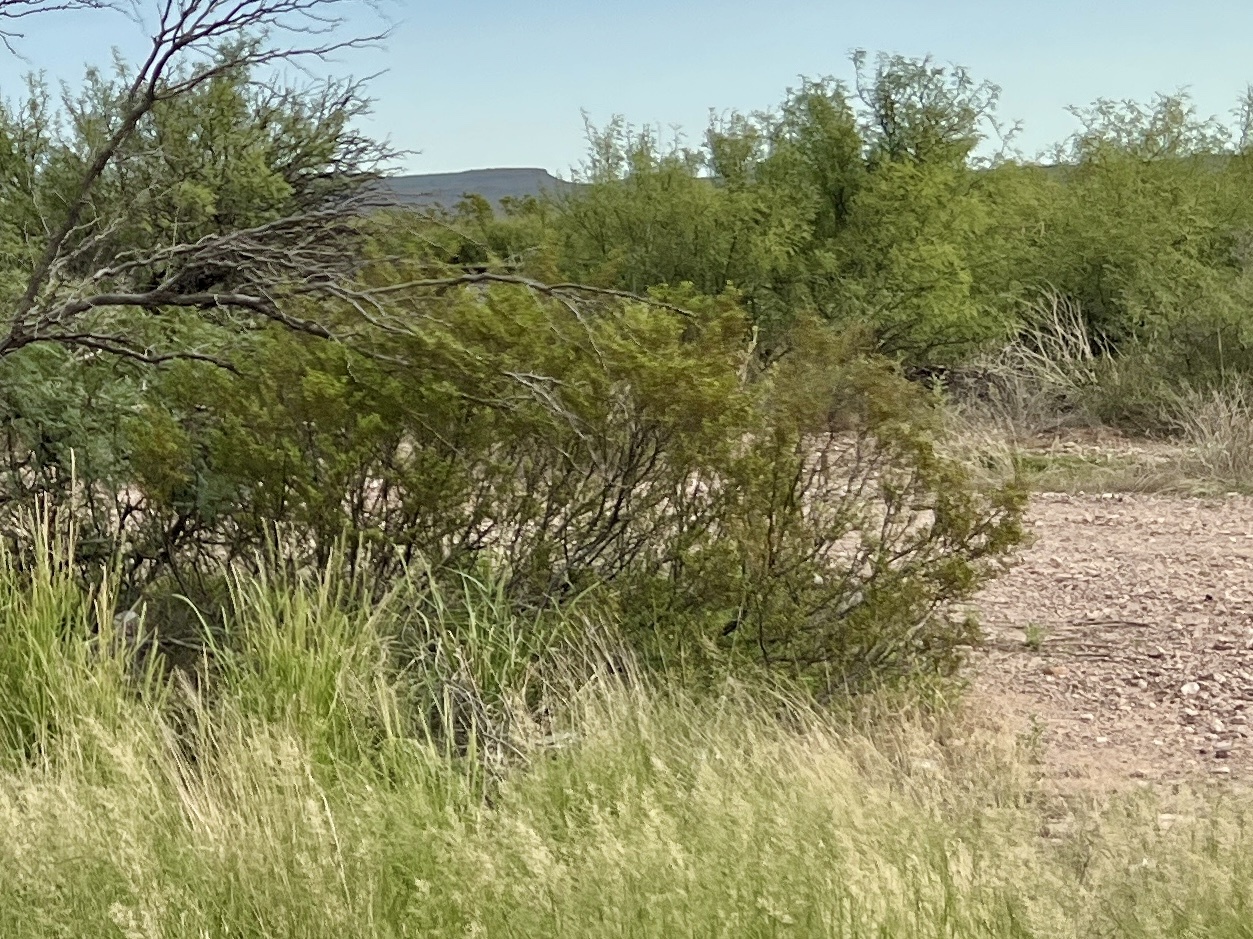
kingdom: Plantae
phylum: Tracheophyta
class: Magnoliopsida
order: Zygophyllales
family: Zygophyllaceae
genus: Larrea
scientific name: Larrea tridentata
